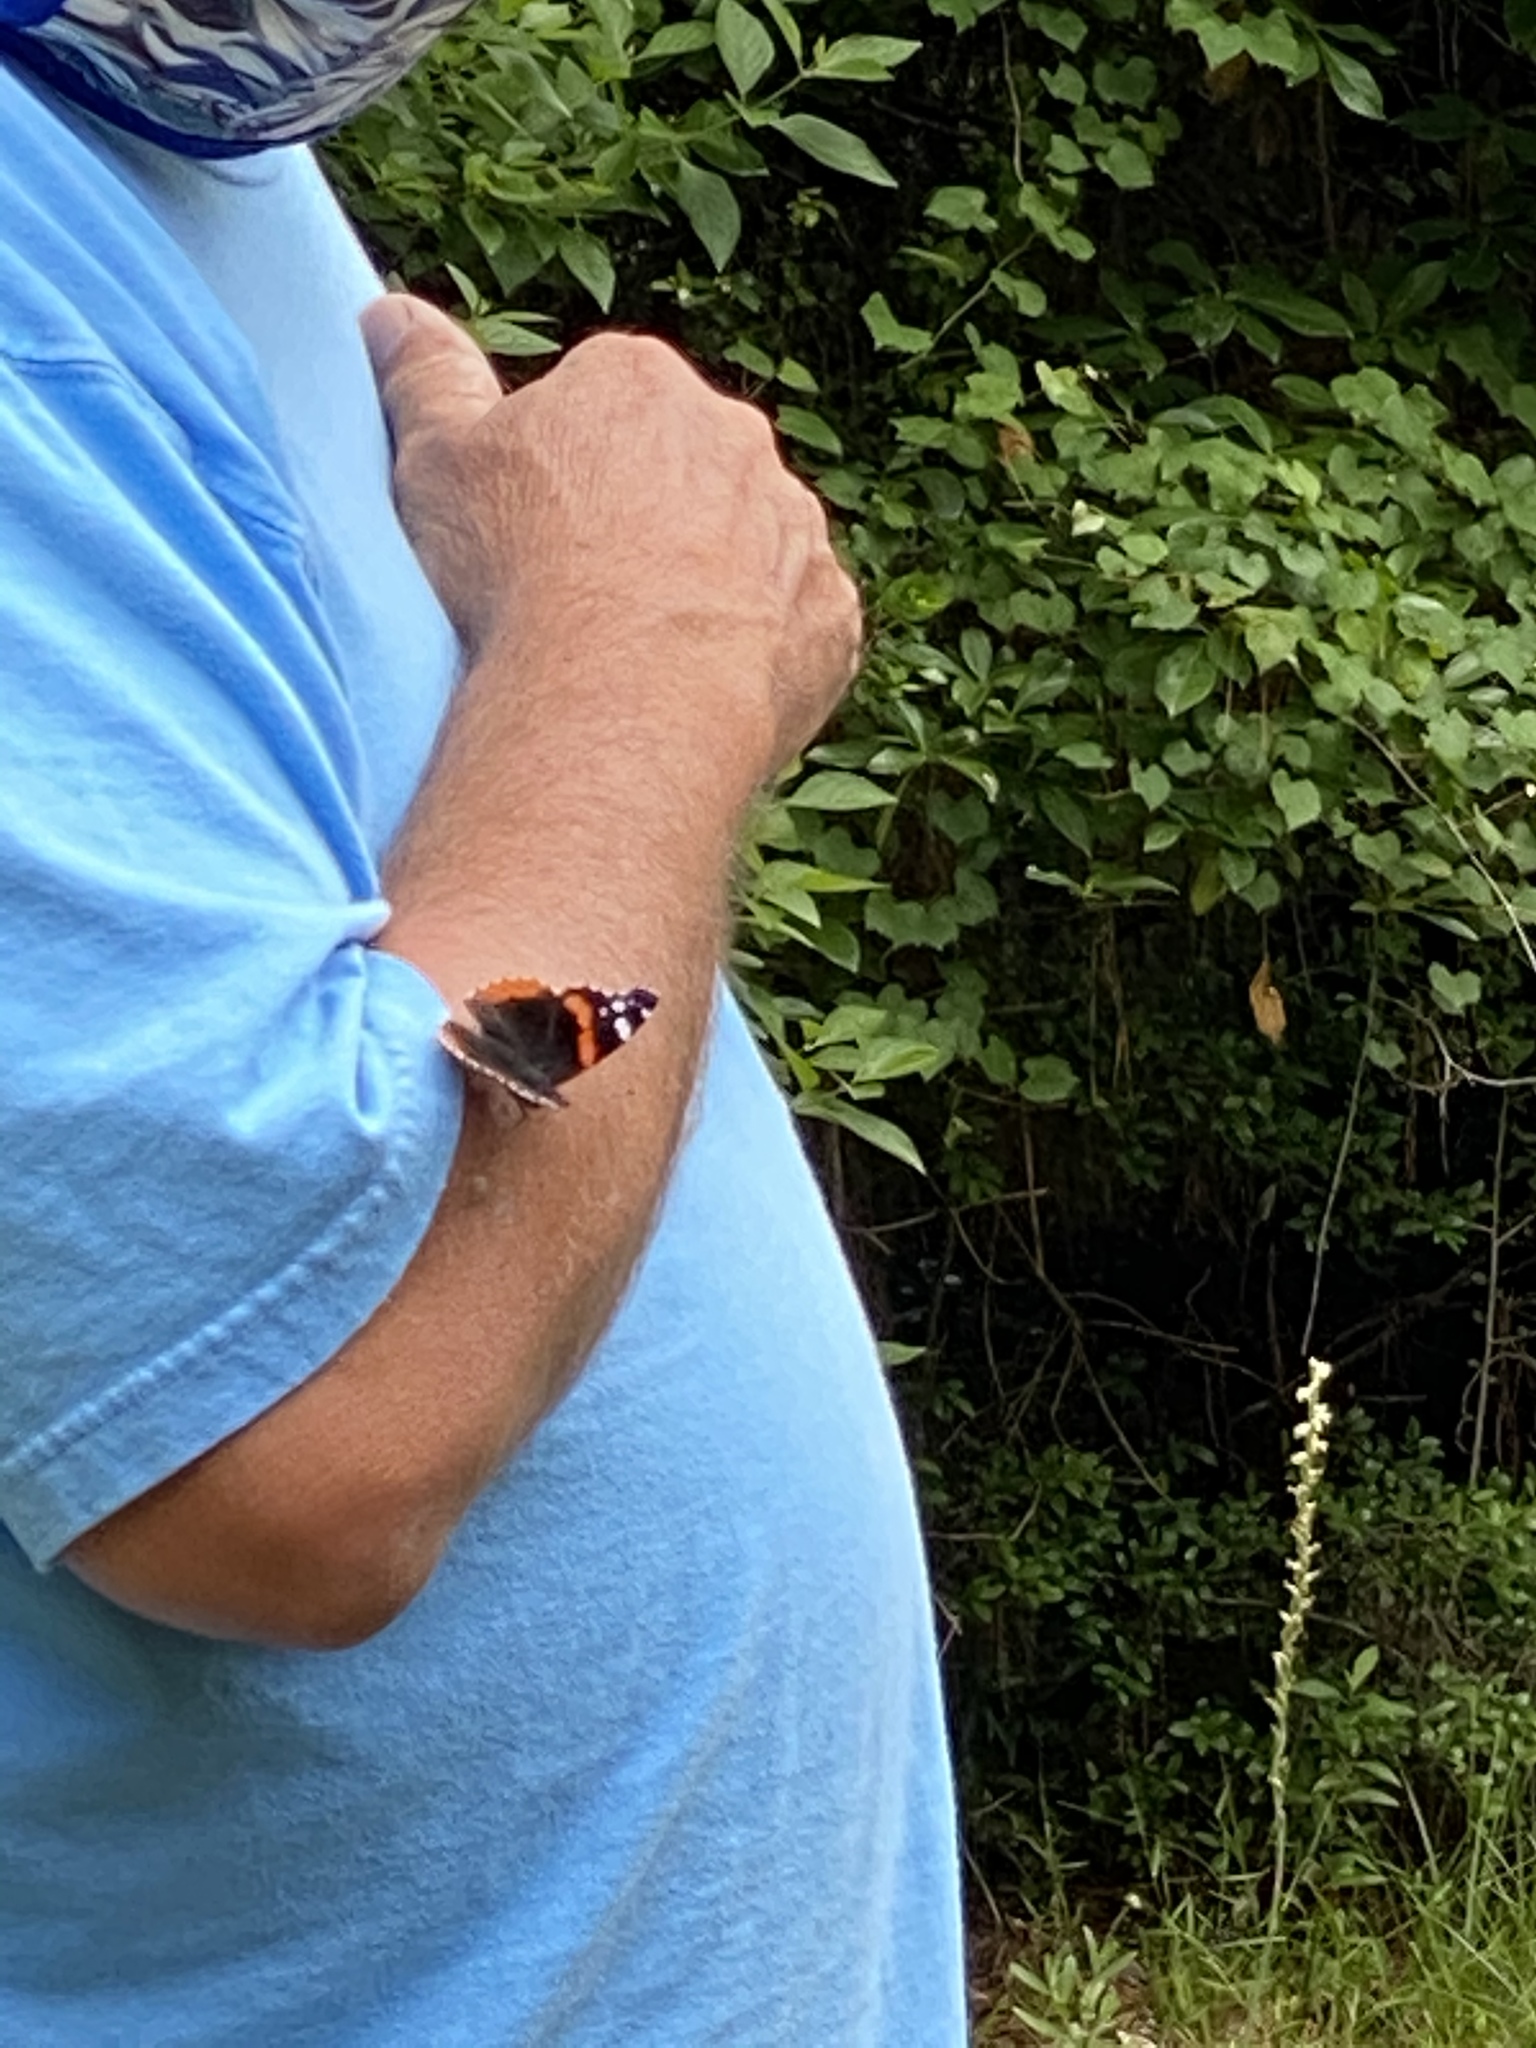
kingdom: Animalia
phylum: Arthropoda
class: Insecta
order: Lepidoptera
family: Nymphalidae
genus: Vanessa
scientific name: Vanessa atalanta
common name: Red admiral
